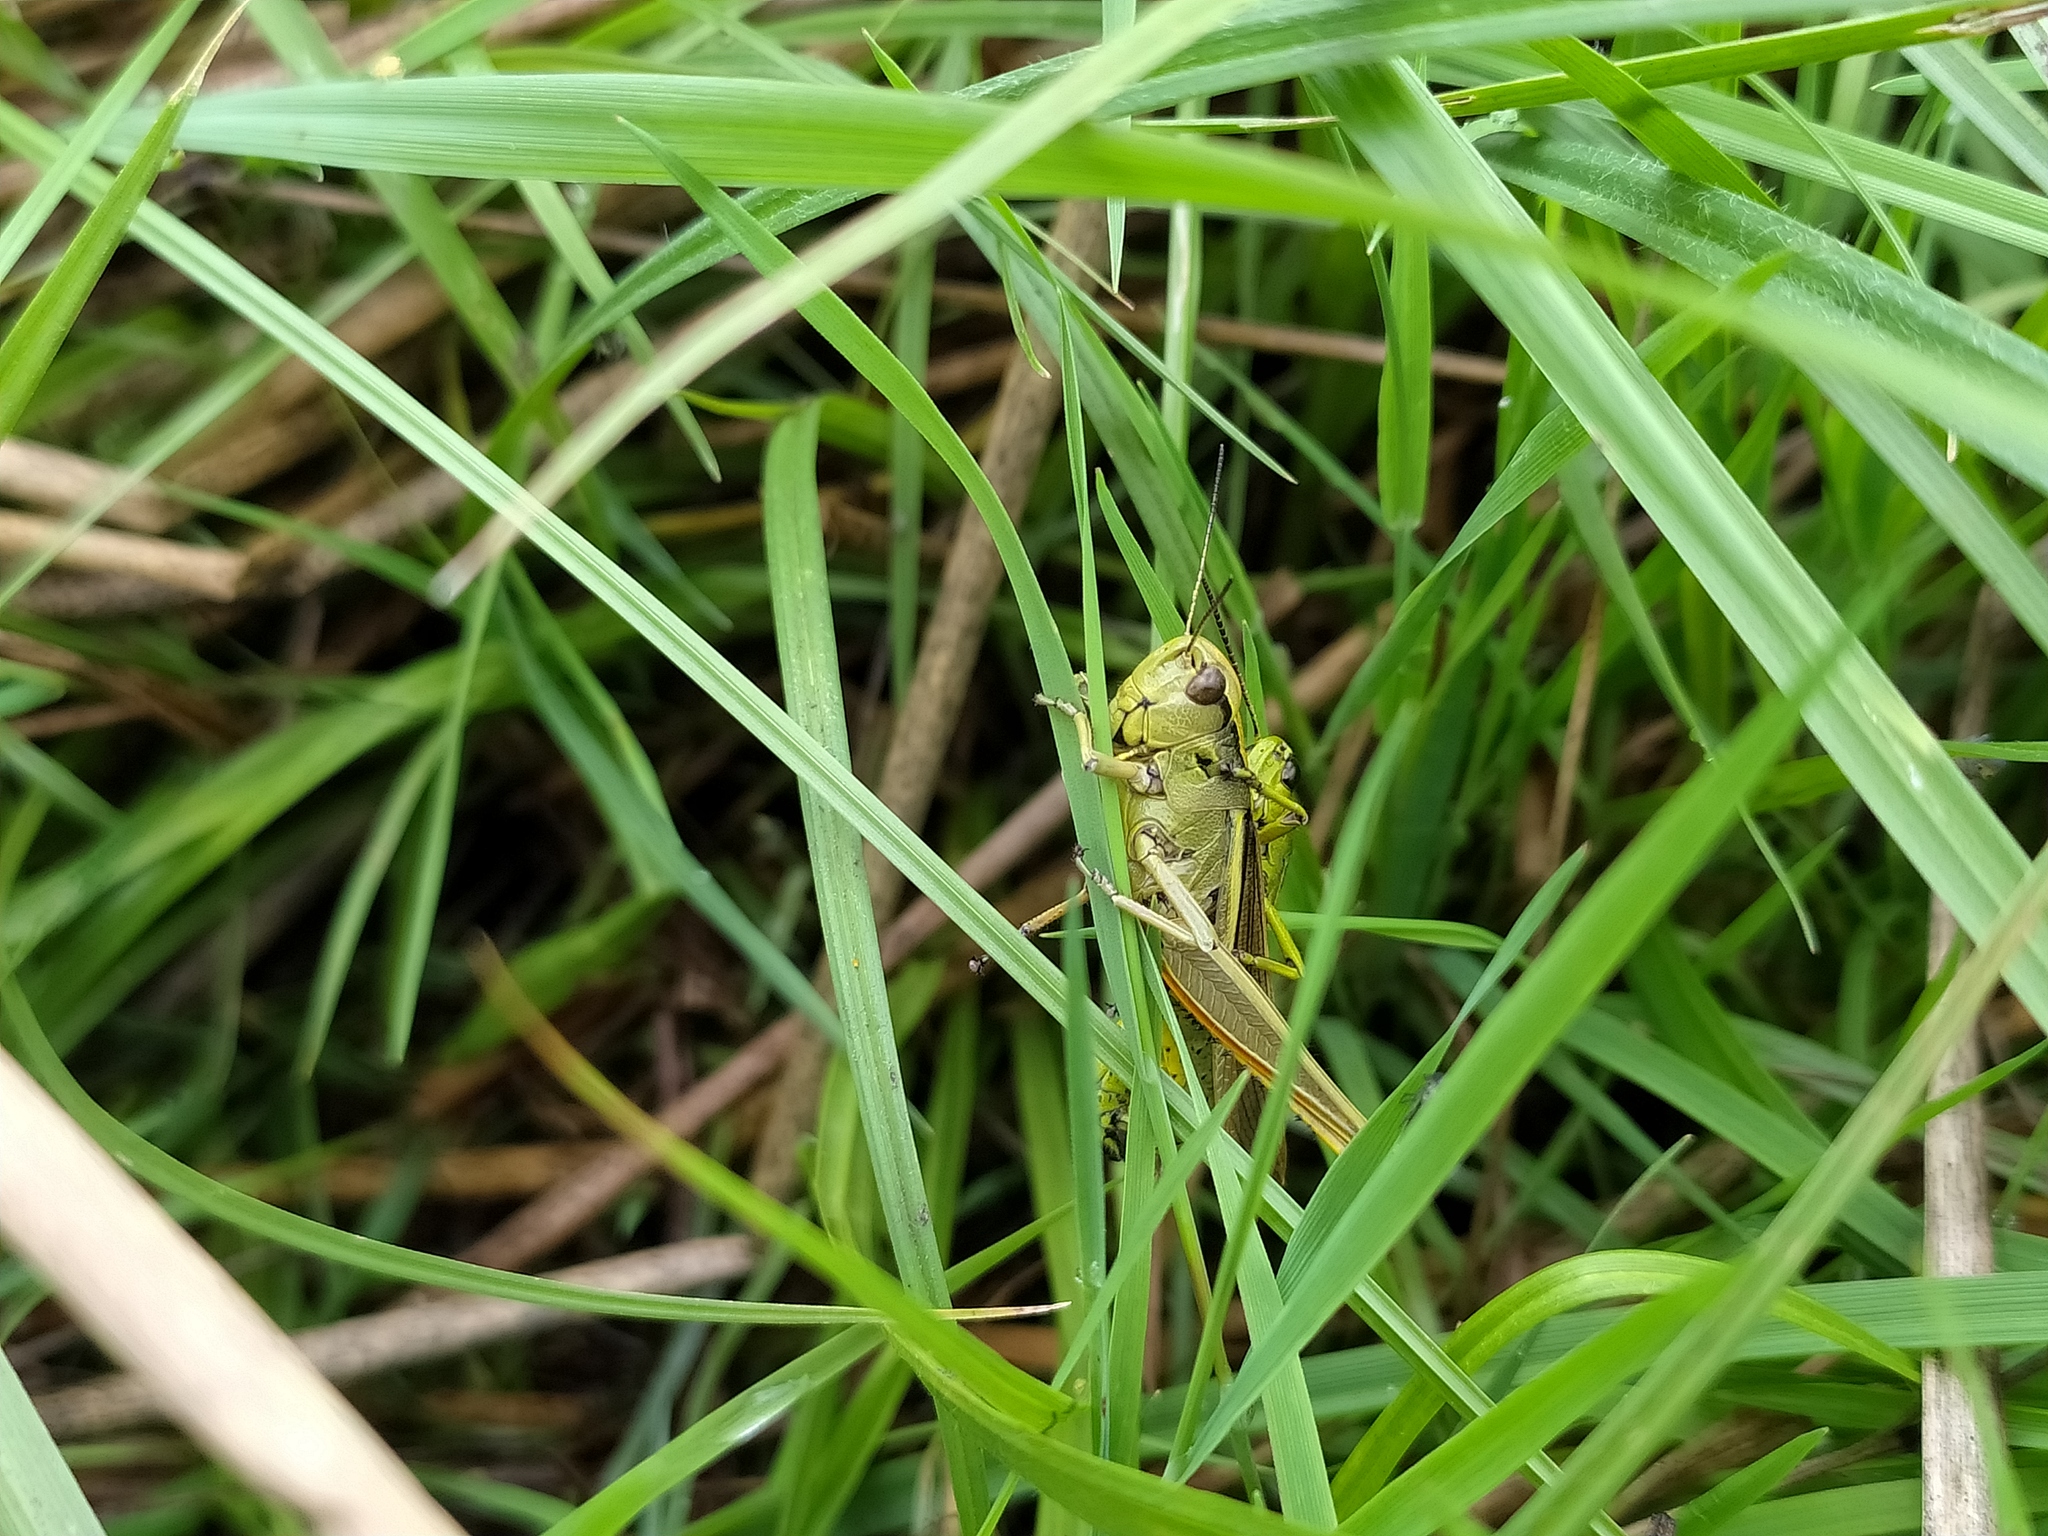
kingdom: Animalia
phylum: Arthropoda
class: Insecta
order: Orthoptera
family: Acrididae
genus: Stethophyma
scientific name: Stethophyma grossum
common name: Large marsh grasshopper
